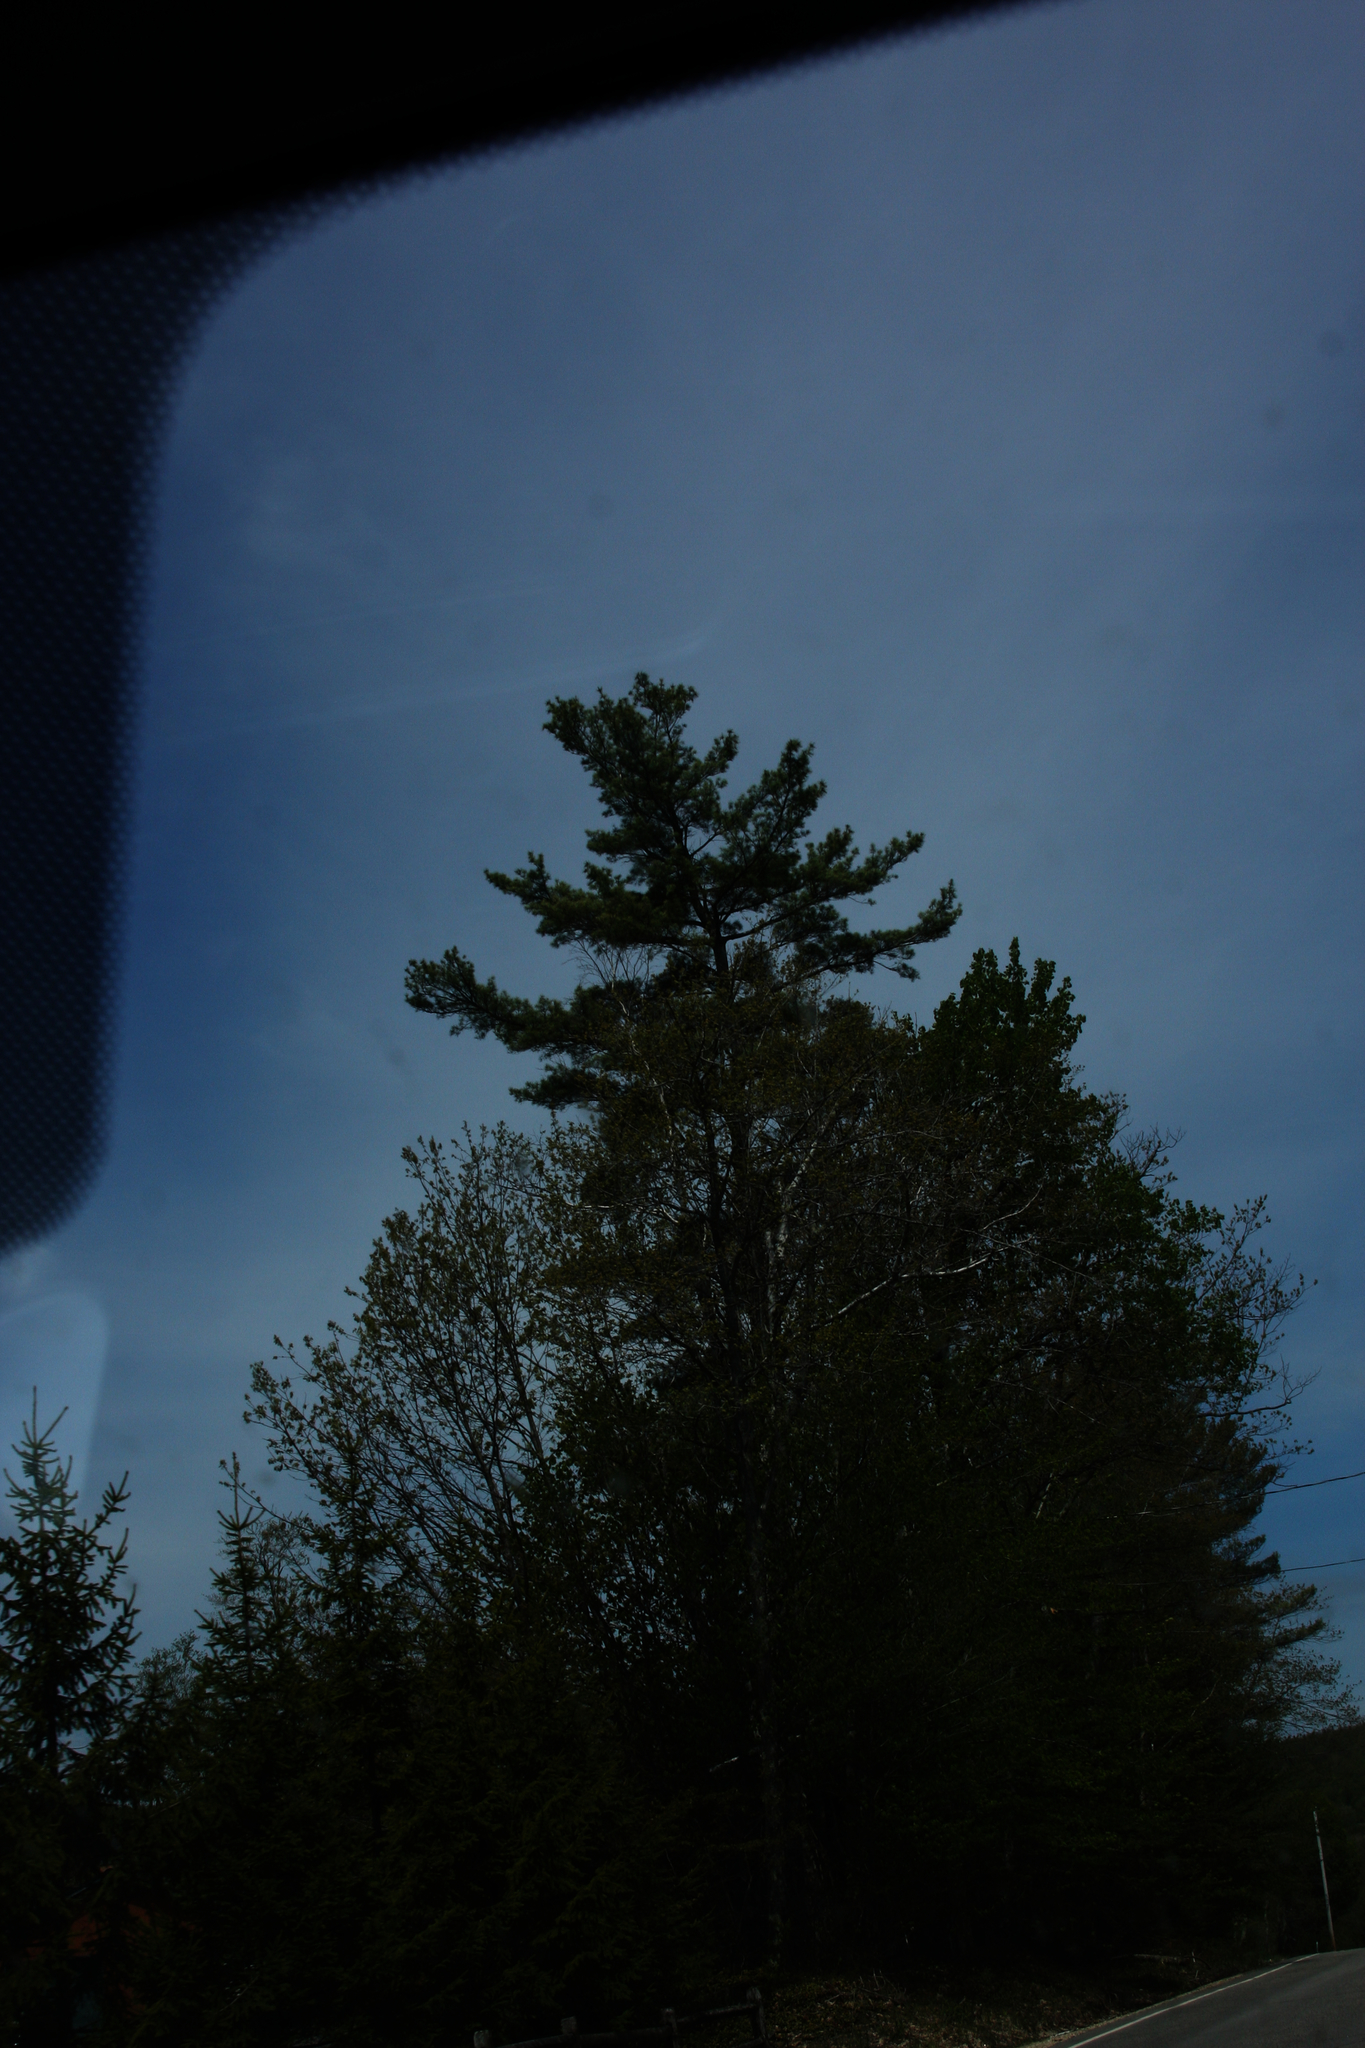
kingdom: Plantae
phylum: Tracheophyta
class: Pinopsida
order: Pinales
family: Pinaceae
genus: Pinus
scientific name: Pinus strobus
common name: Weymouth pine
